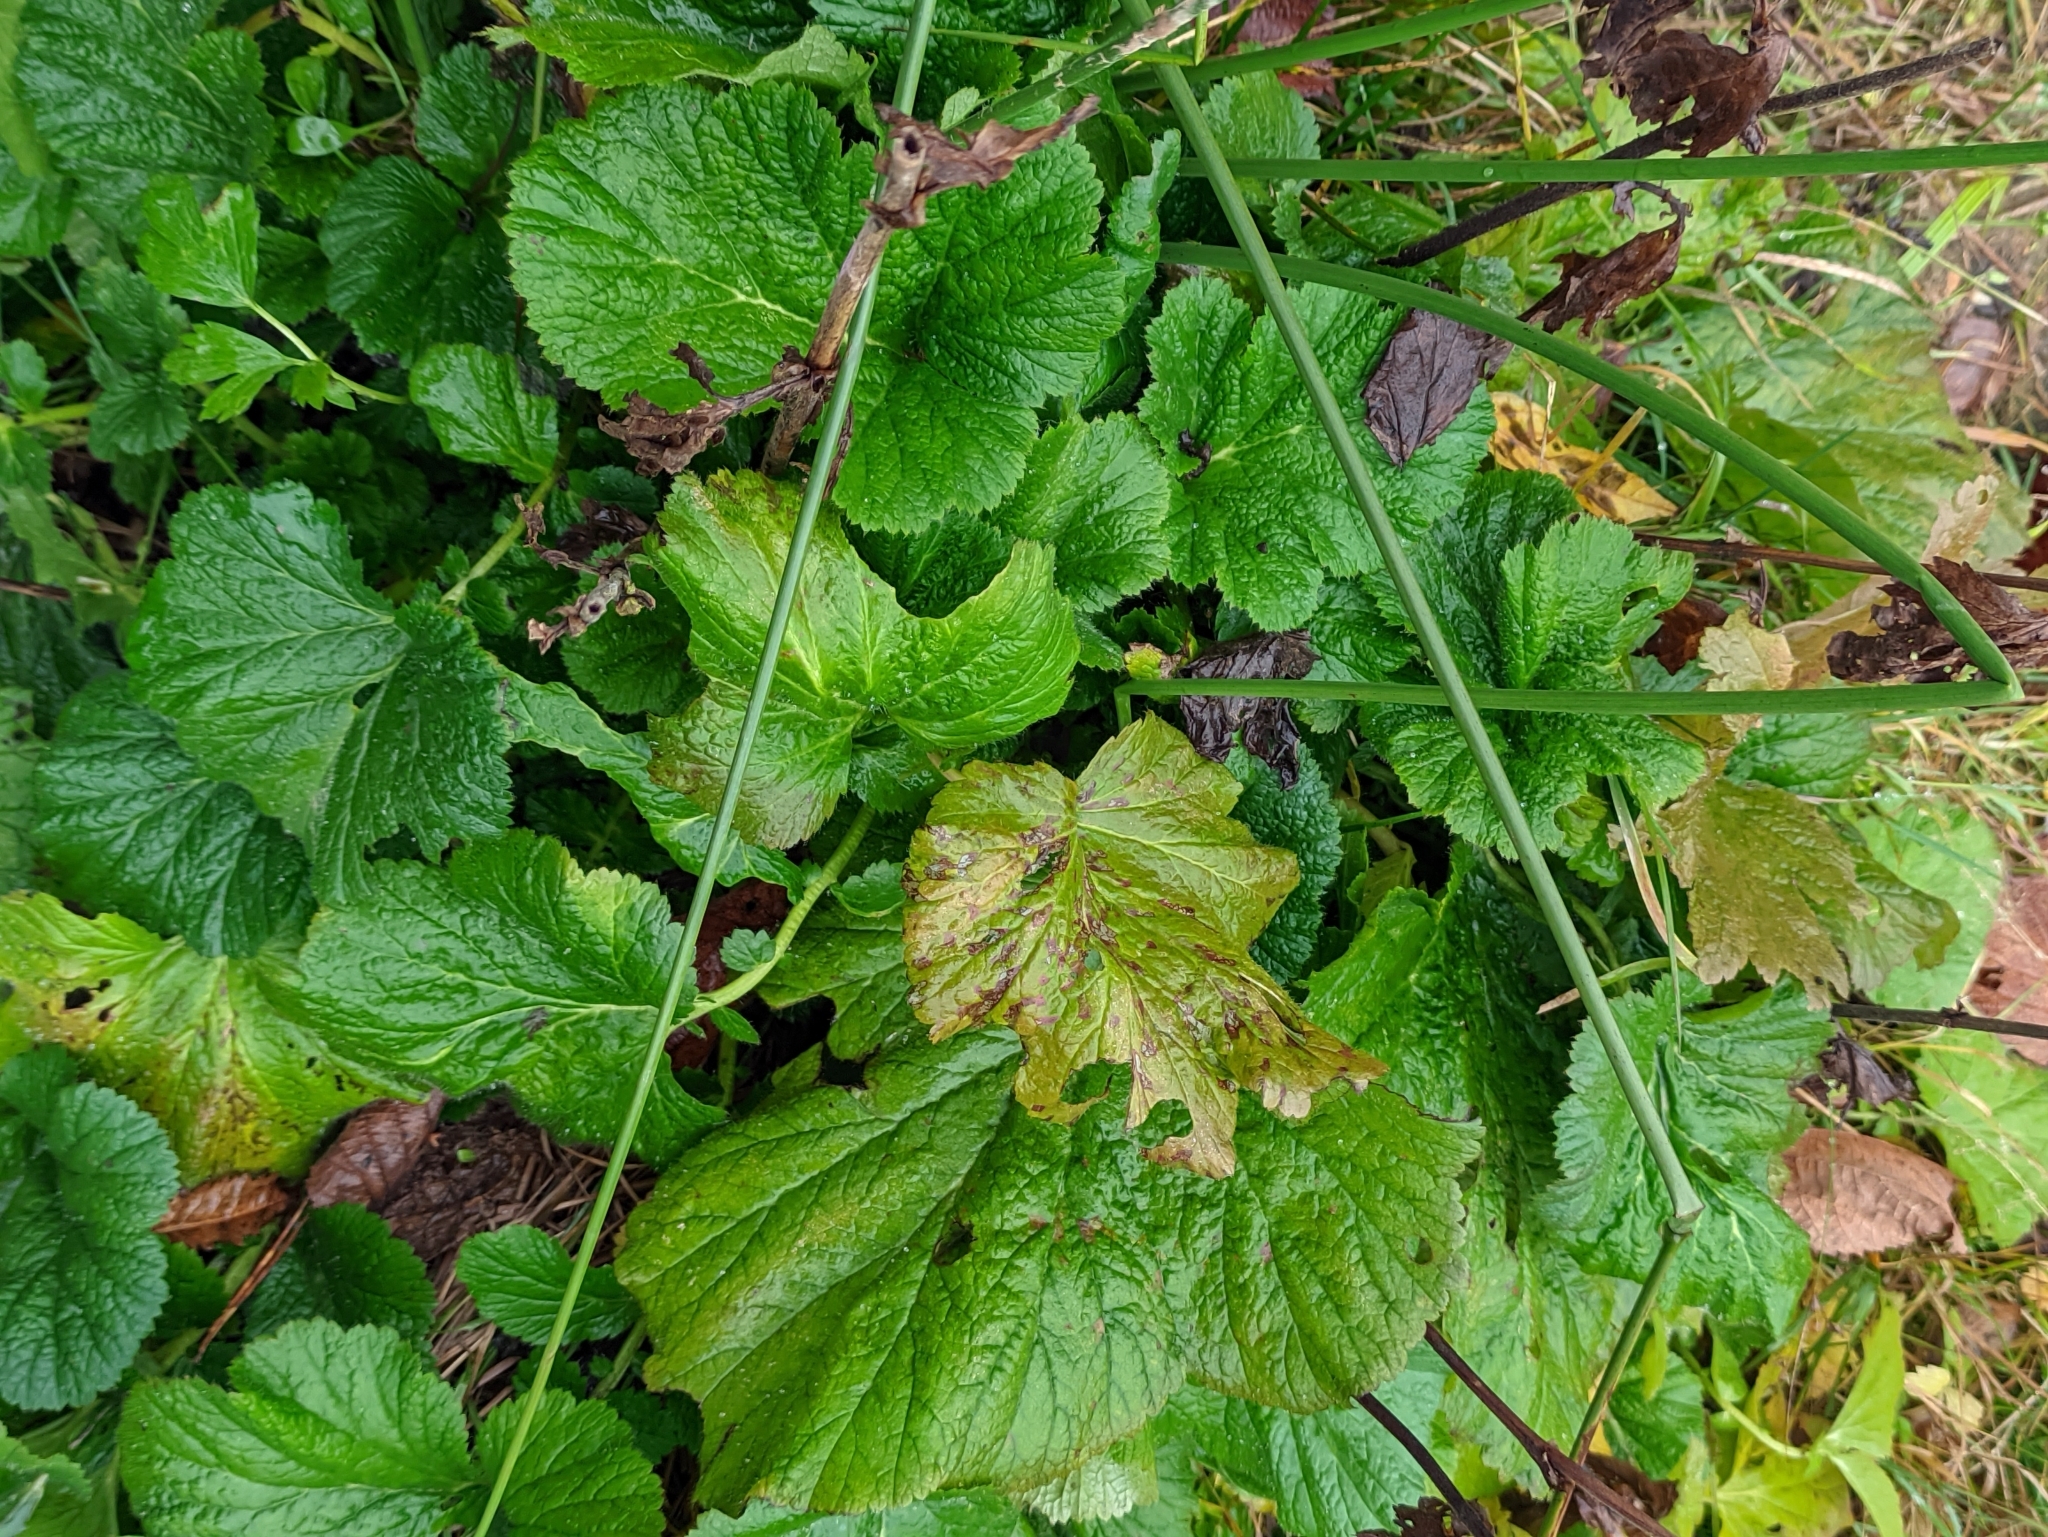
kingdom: Plantae
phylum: Tracheophyta
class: Magnoliopsida
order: Rosales
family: Rosaceae
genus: Geum
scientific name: Geum macrophyllum
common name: Large-leaved avens
